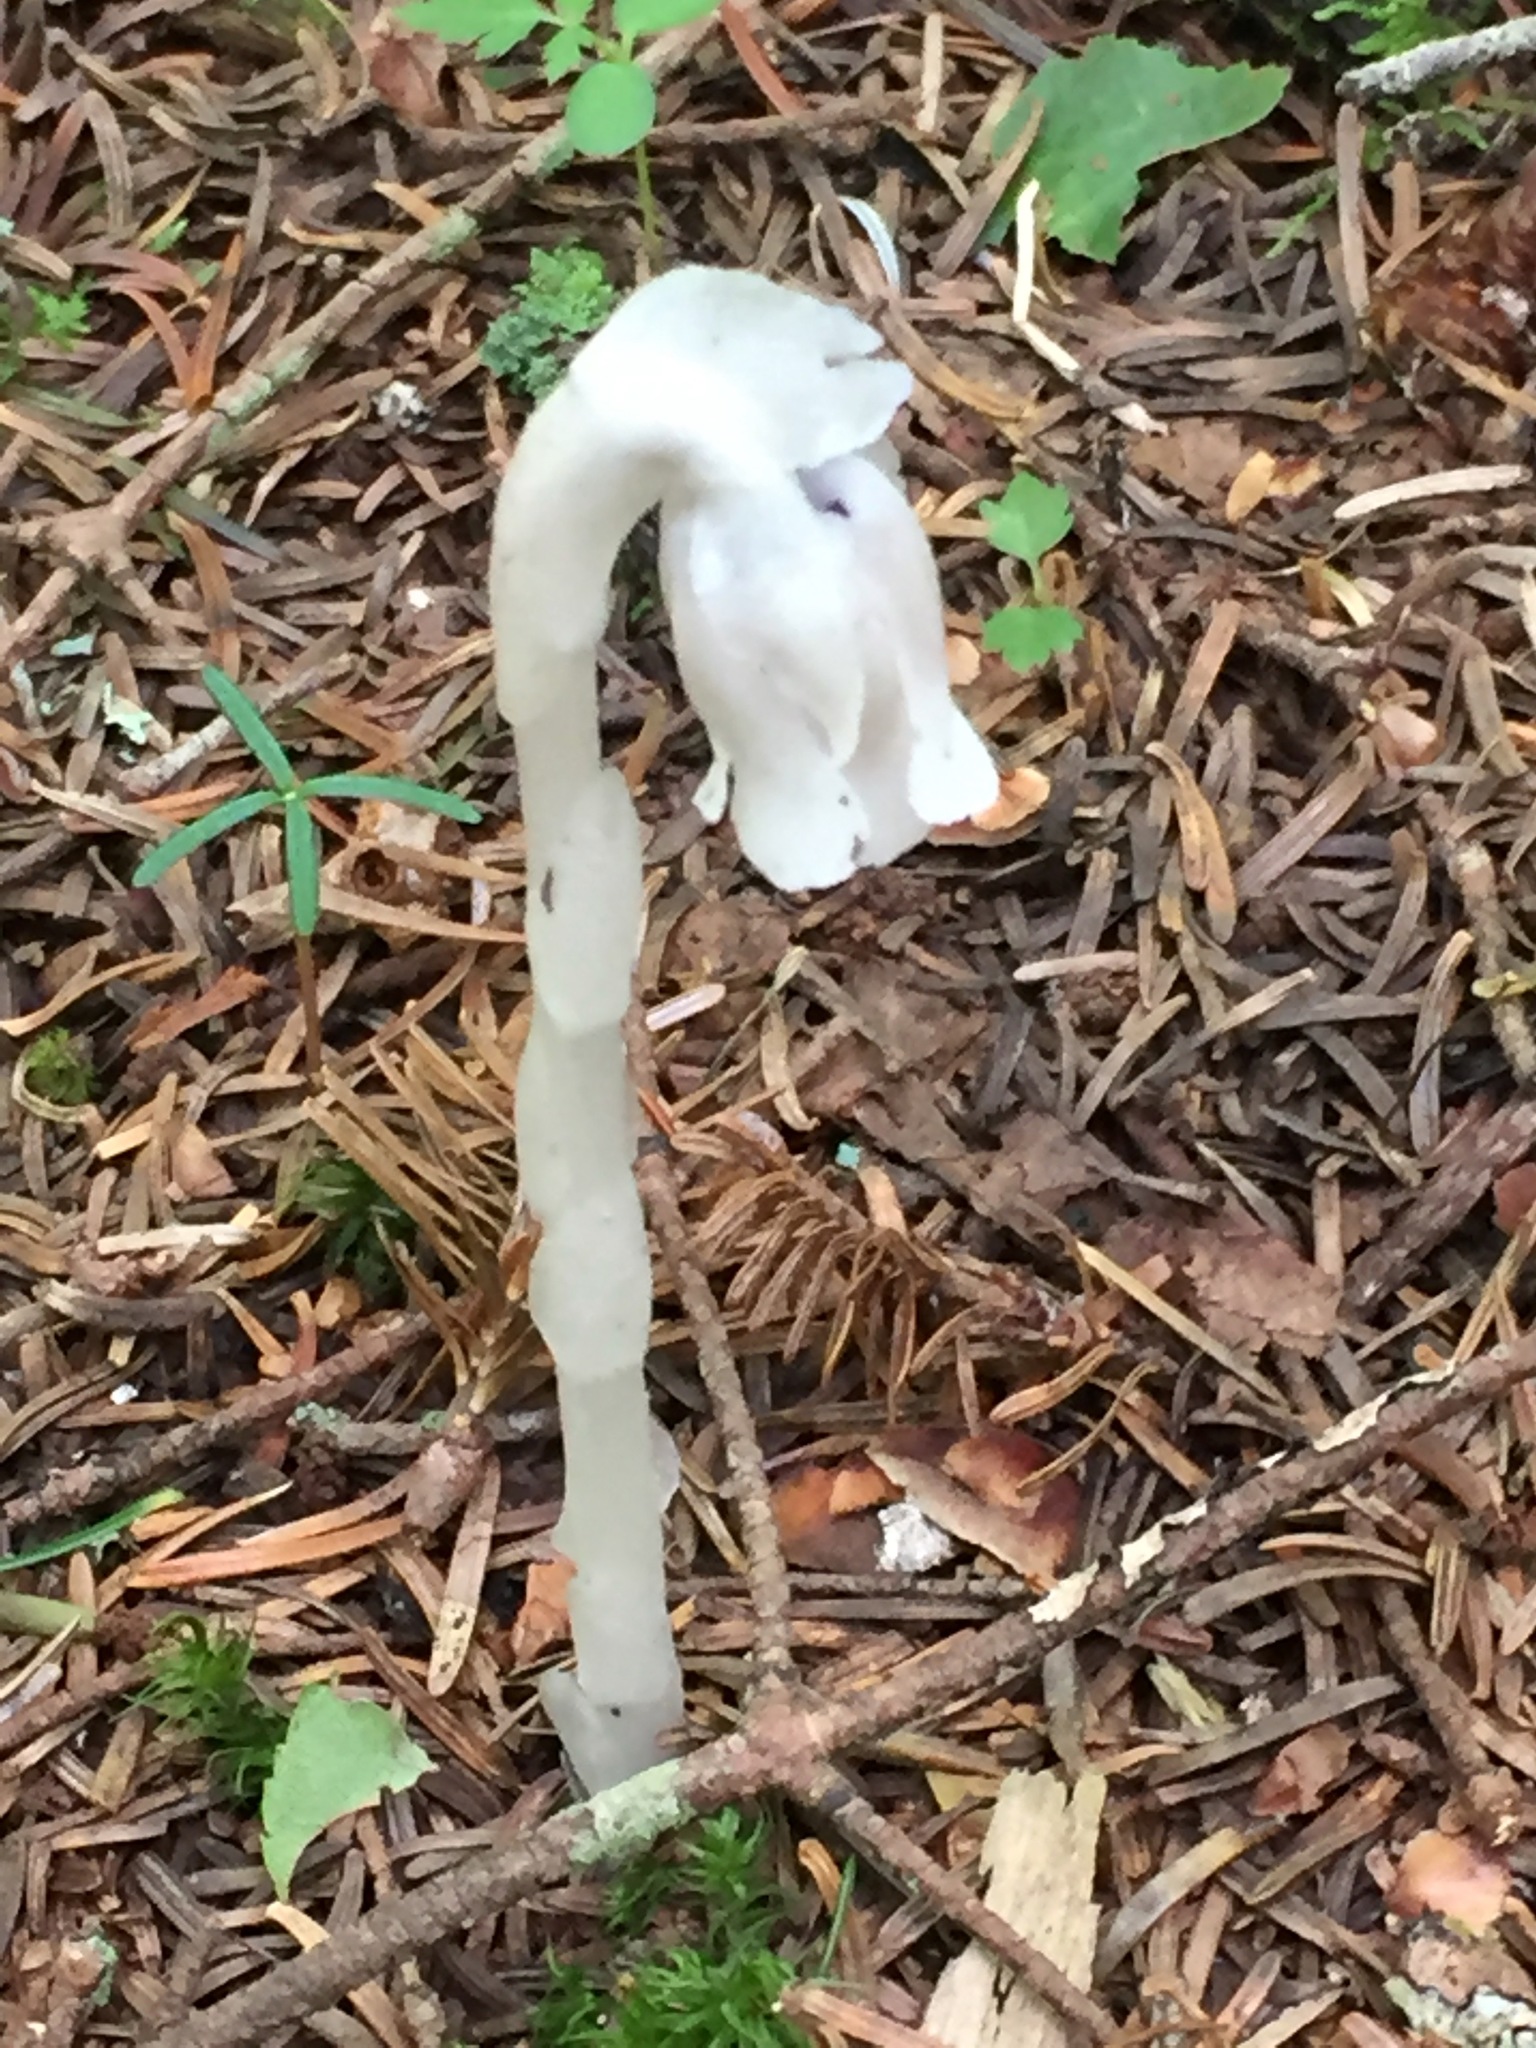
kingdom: Plantae
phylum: Tracheophyta
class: Magnoliopsida
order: Ericales
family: Ericaceae
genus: Monotropa
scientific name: Monotropa uniflora
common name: Convulsion root
